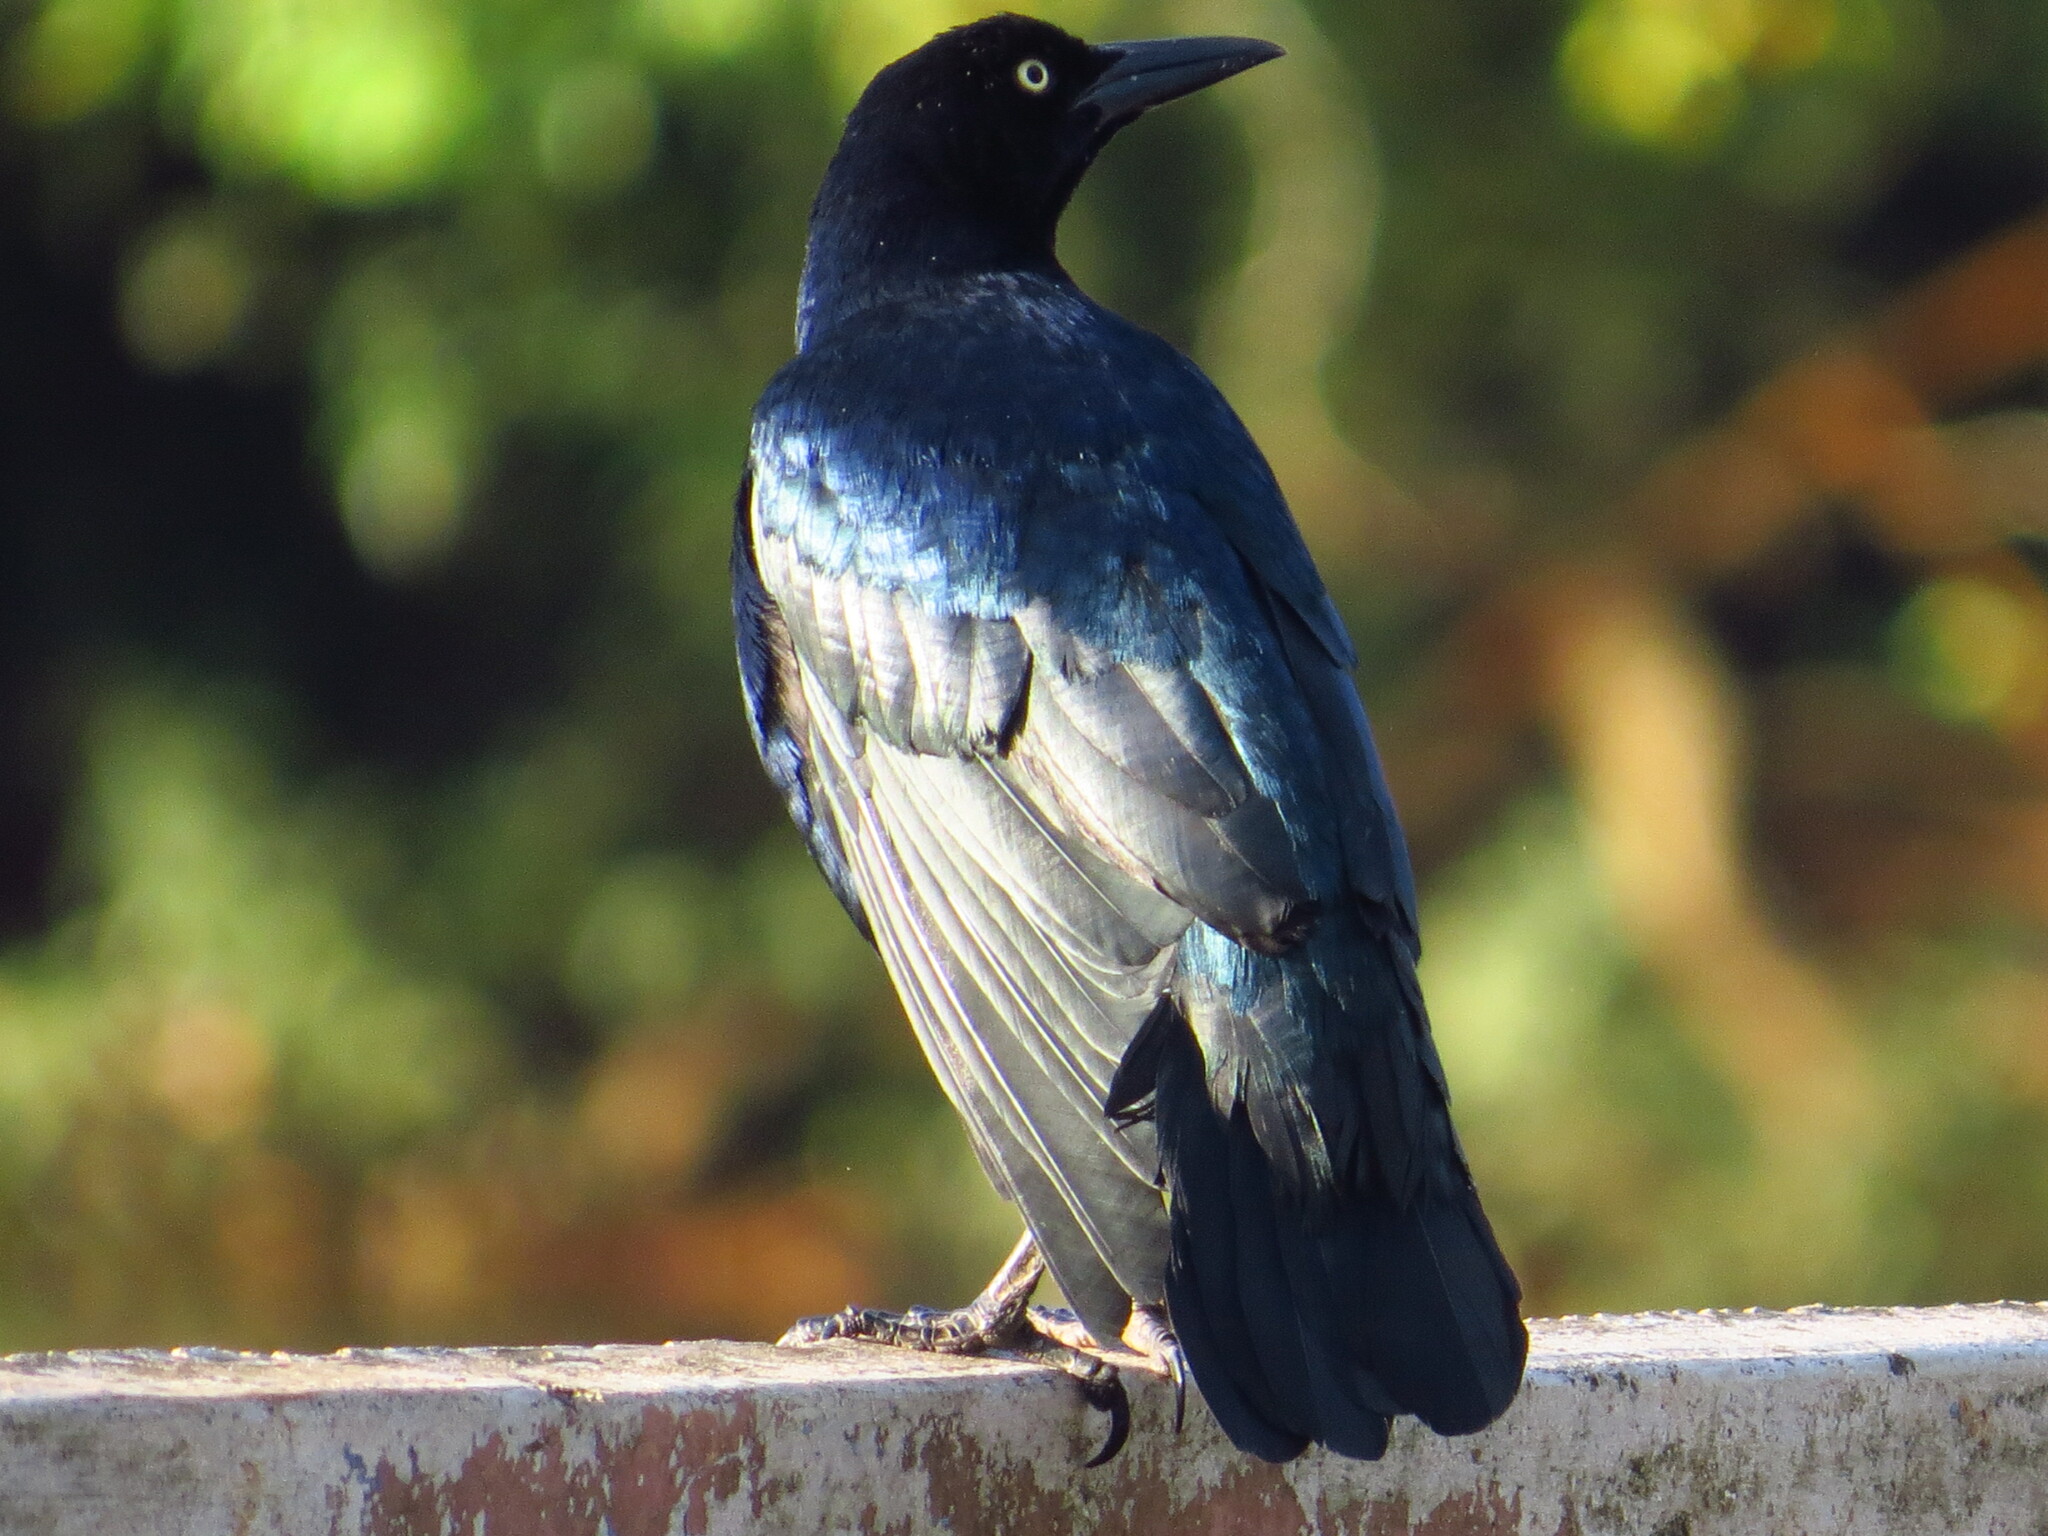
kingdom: Animalia
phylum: Chordata
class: Aves
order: Passeriformes
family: Icteridae
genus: Quiscalus
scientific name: Quiscalus mexicanus
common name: Great-tailed grackle
